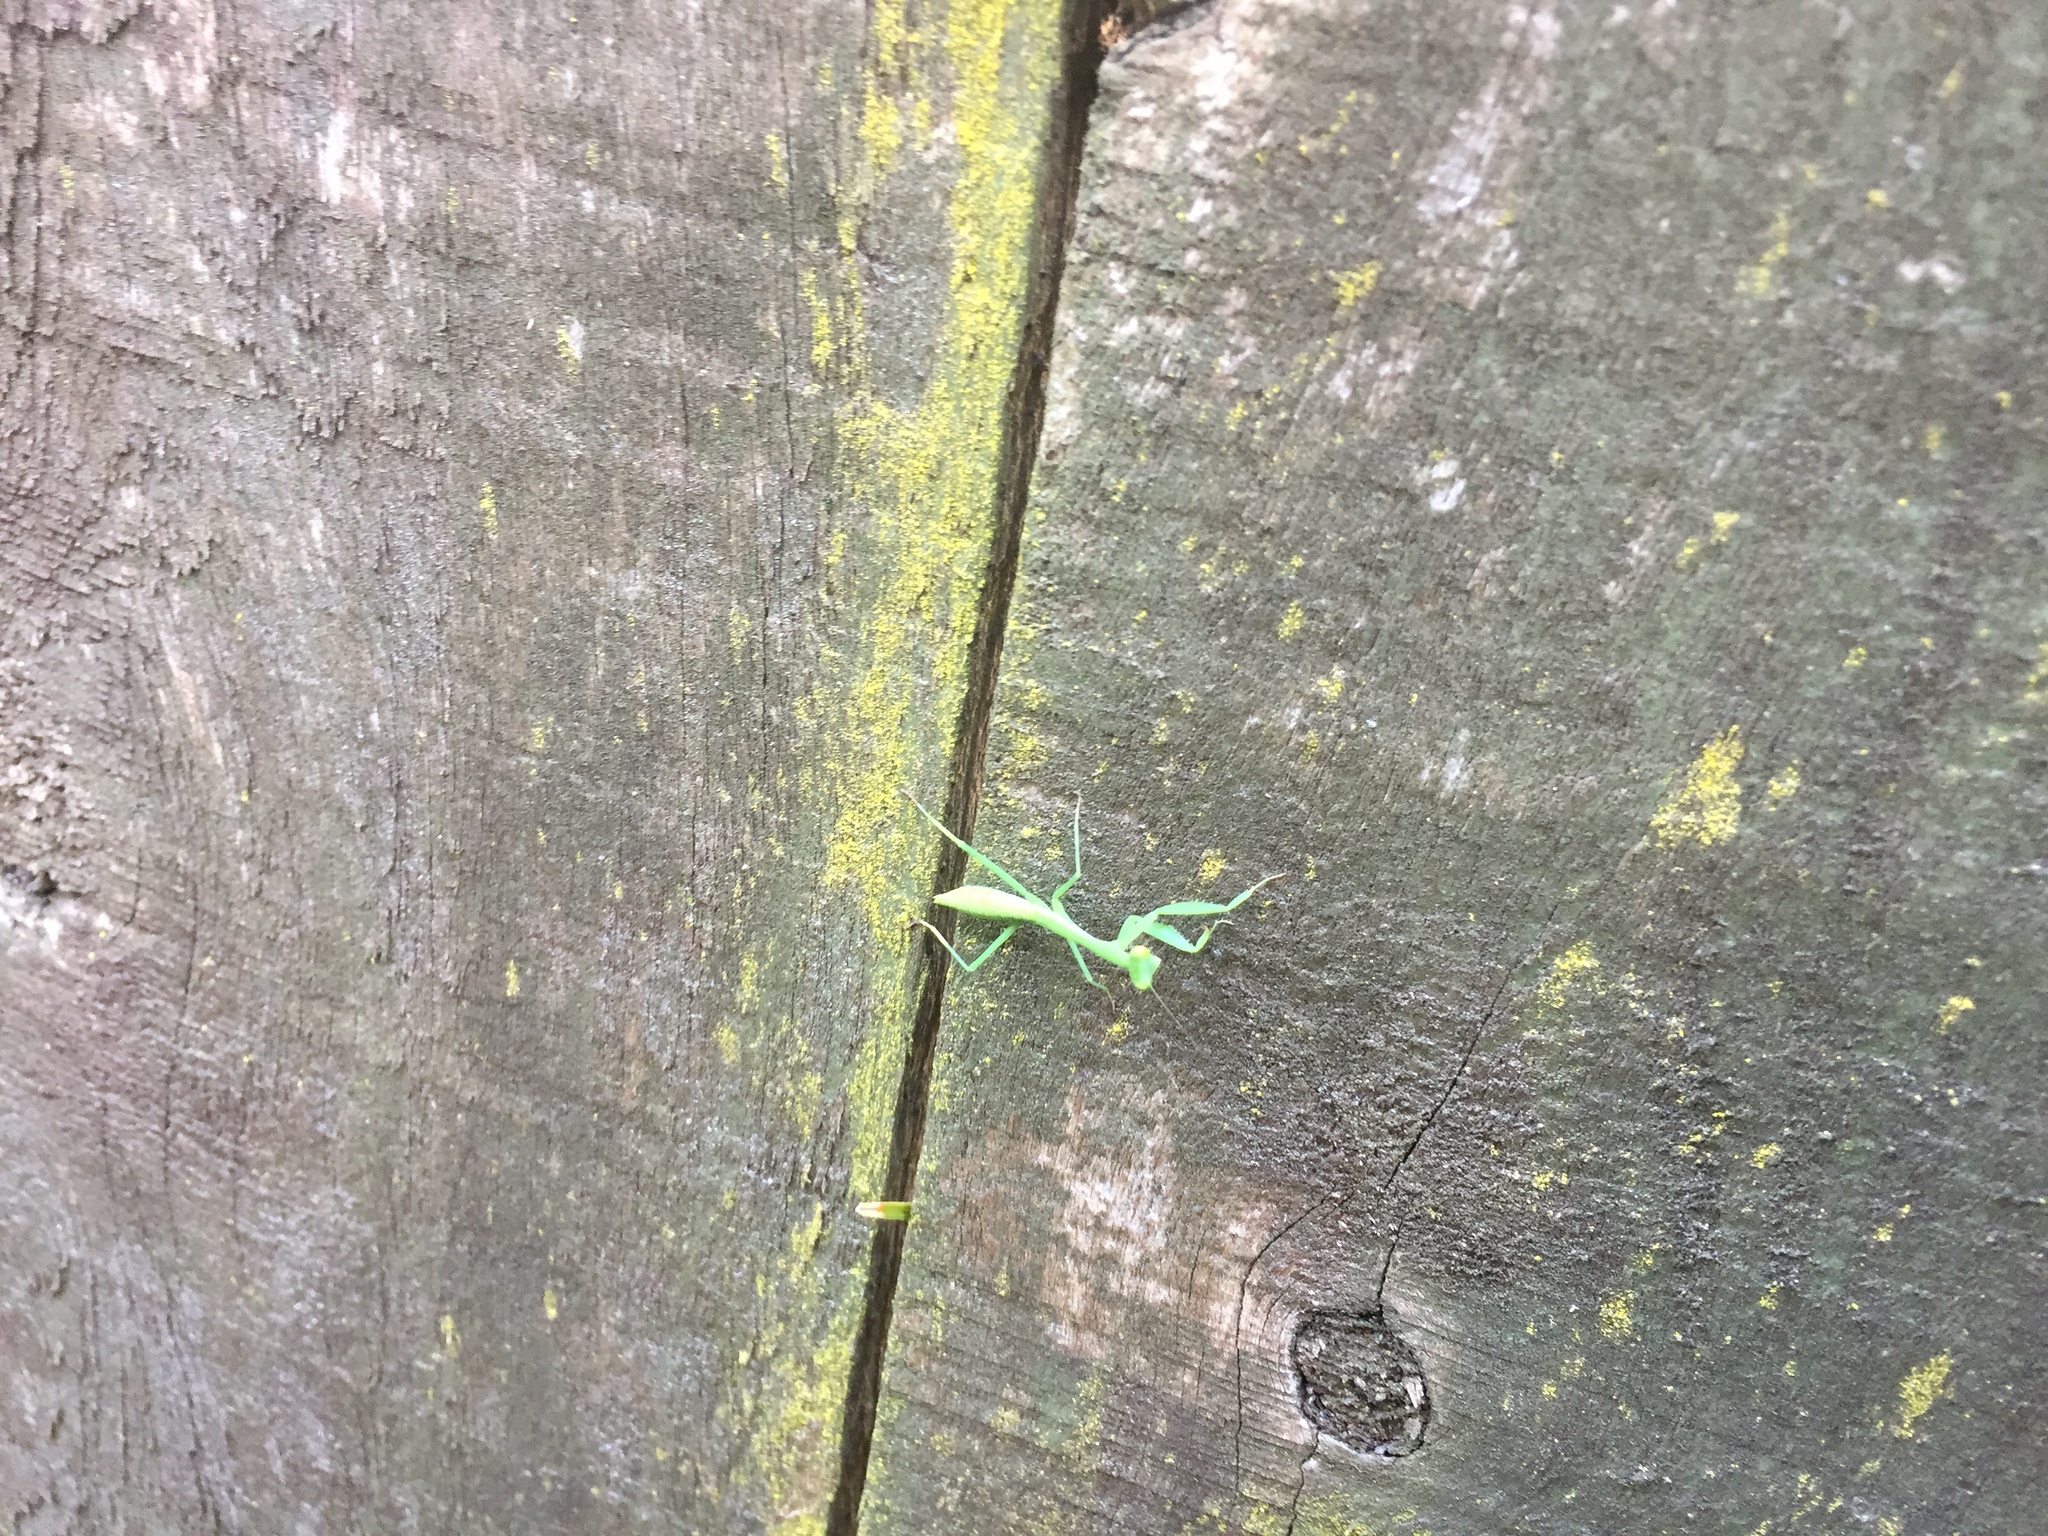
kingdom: Animalia
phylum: Arthropoda
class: Insecta
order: Mantodea
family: Miomantidae
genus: Miomantis
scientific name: Miomantis caffra
